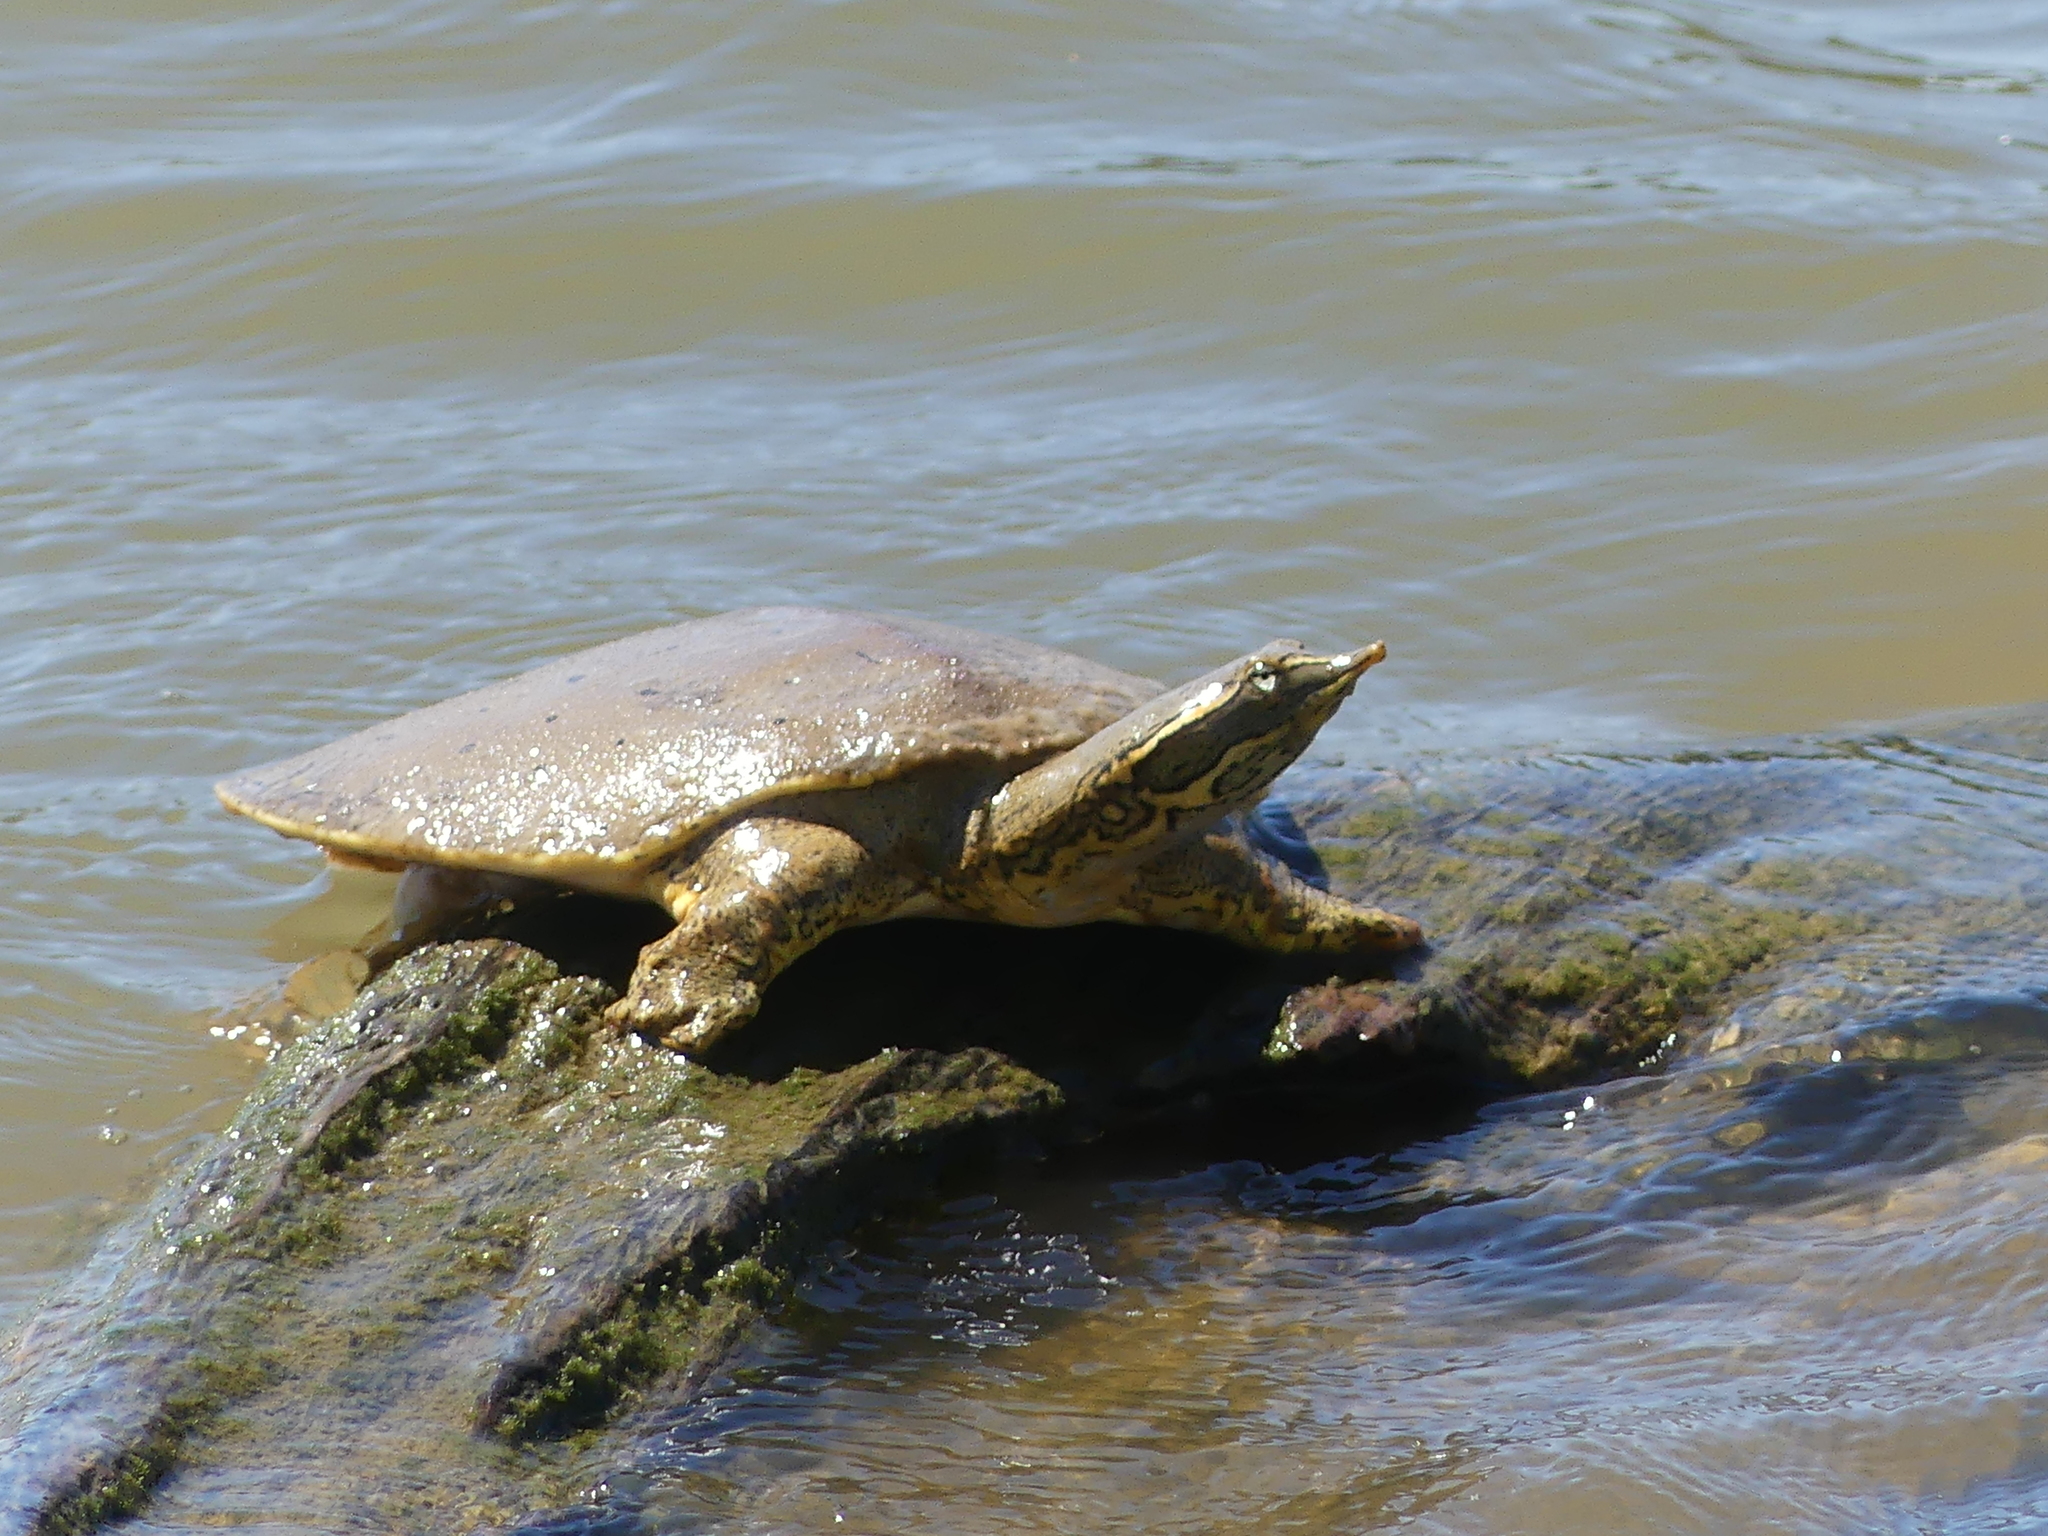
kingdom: Animalia
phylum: Chordata
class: Testudines
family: Trionychidae
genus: Apalone
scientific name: Apalone spinifera
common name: Spiny softshell turtle
